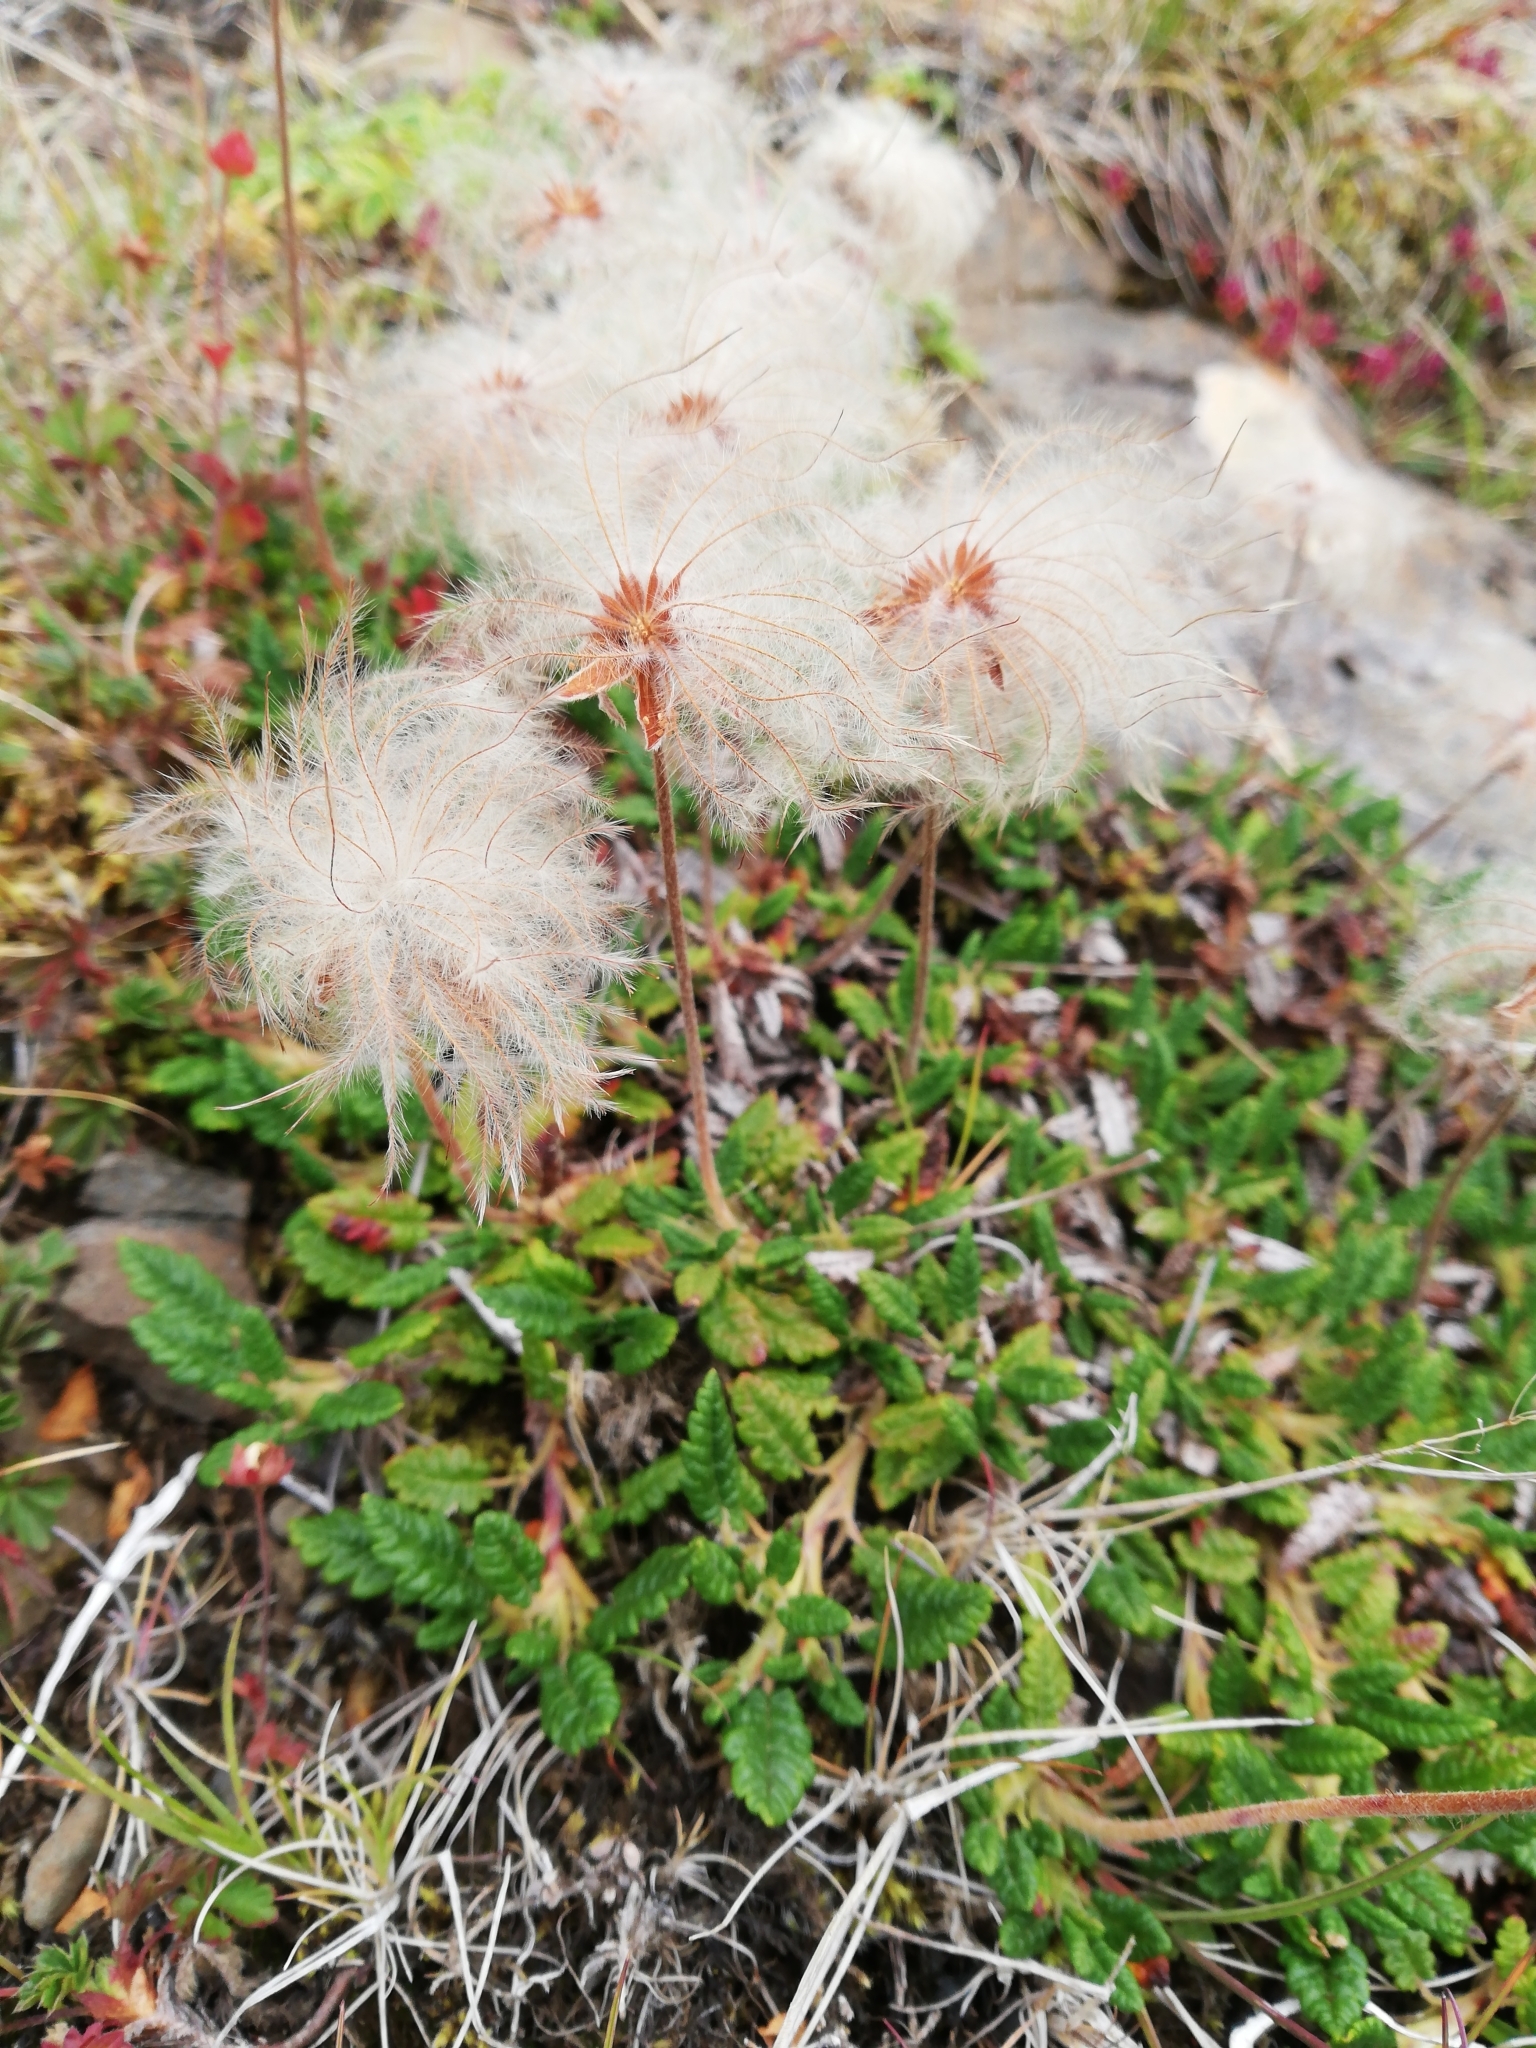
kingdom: Plantae
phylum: Tracheophyta
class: Magnoliopsida
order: Rosales
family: Rosaceae
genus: Dryas
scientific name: Dryas octopetala
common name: Eight-petal mountain-avens
